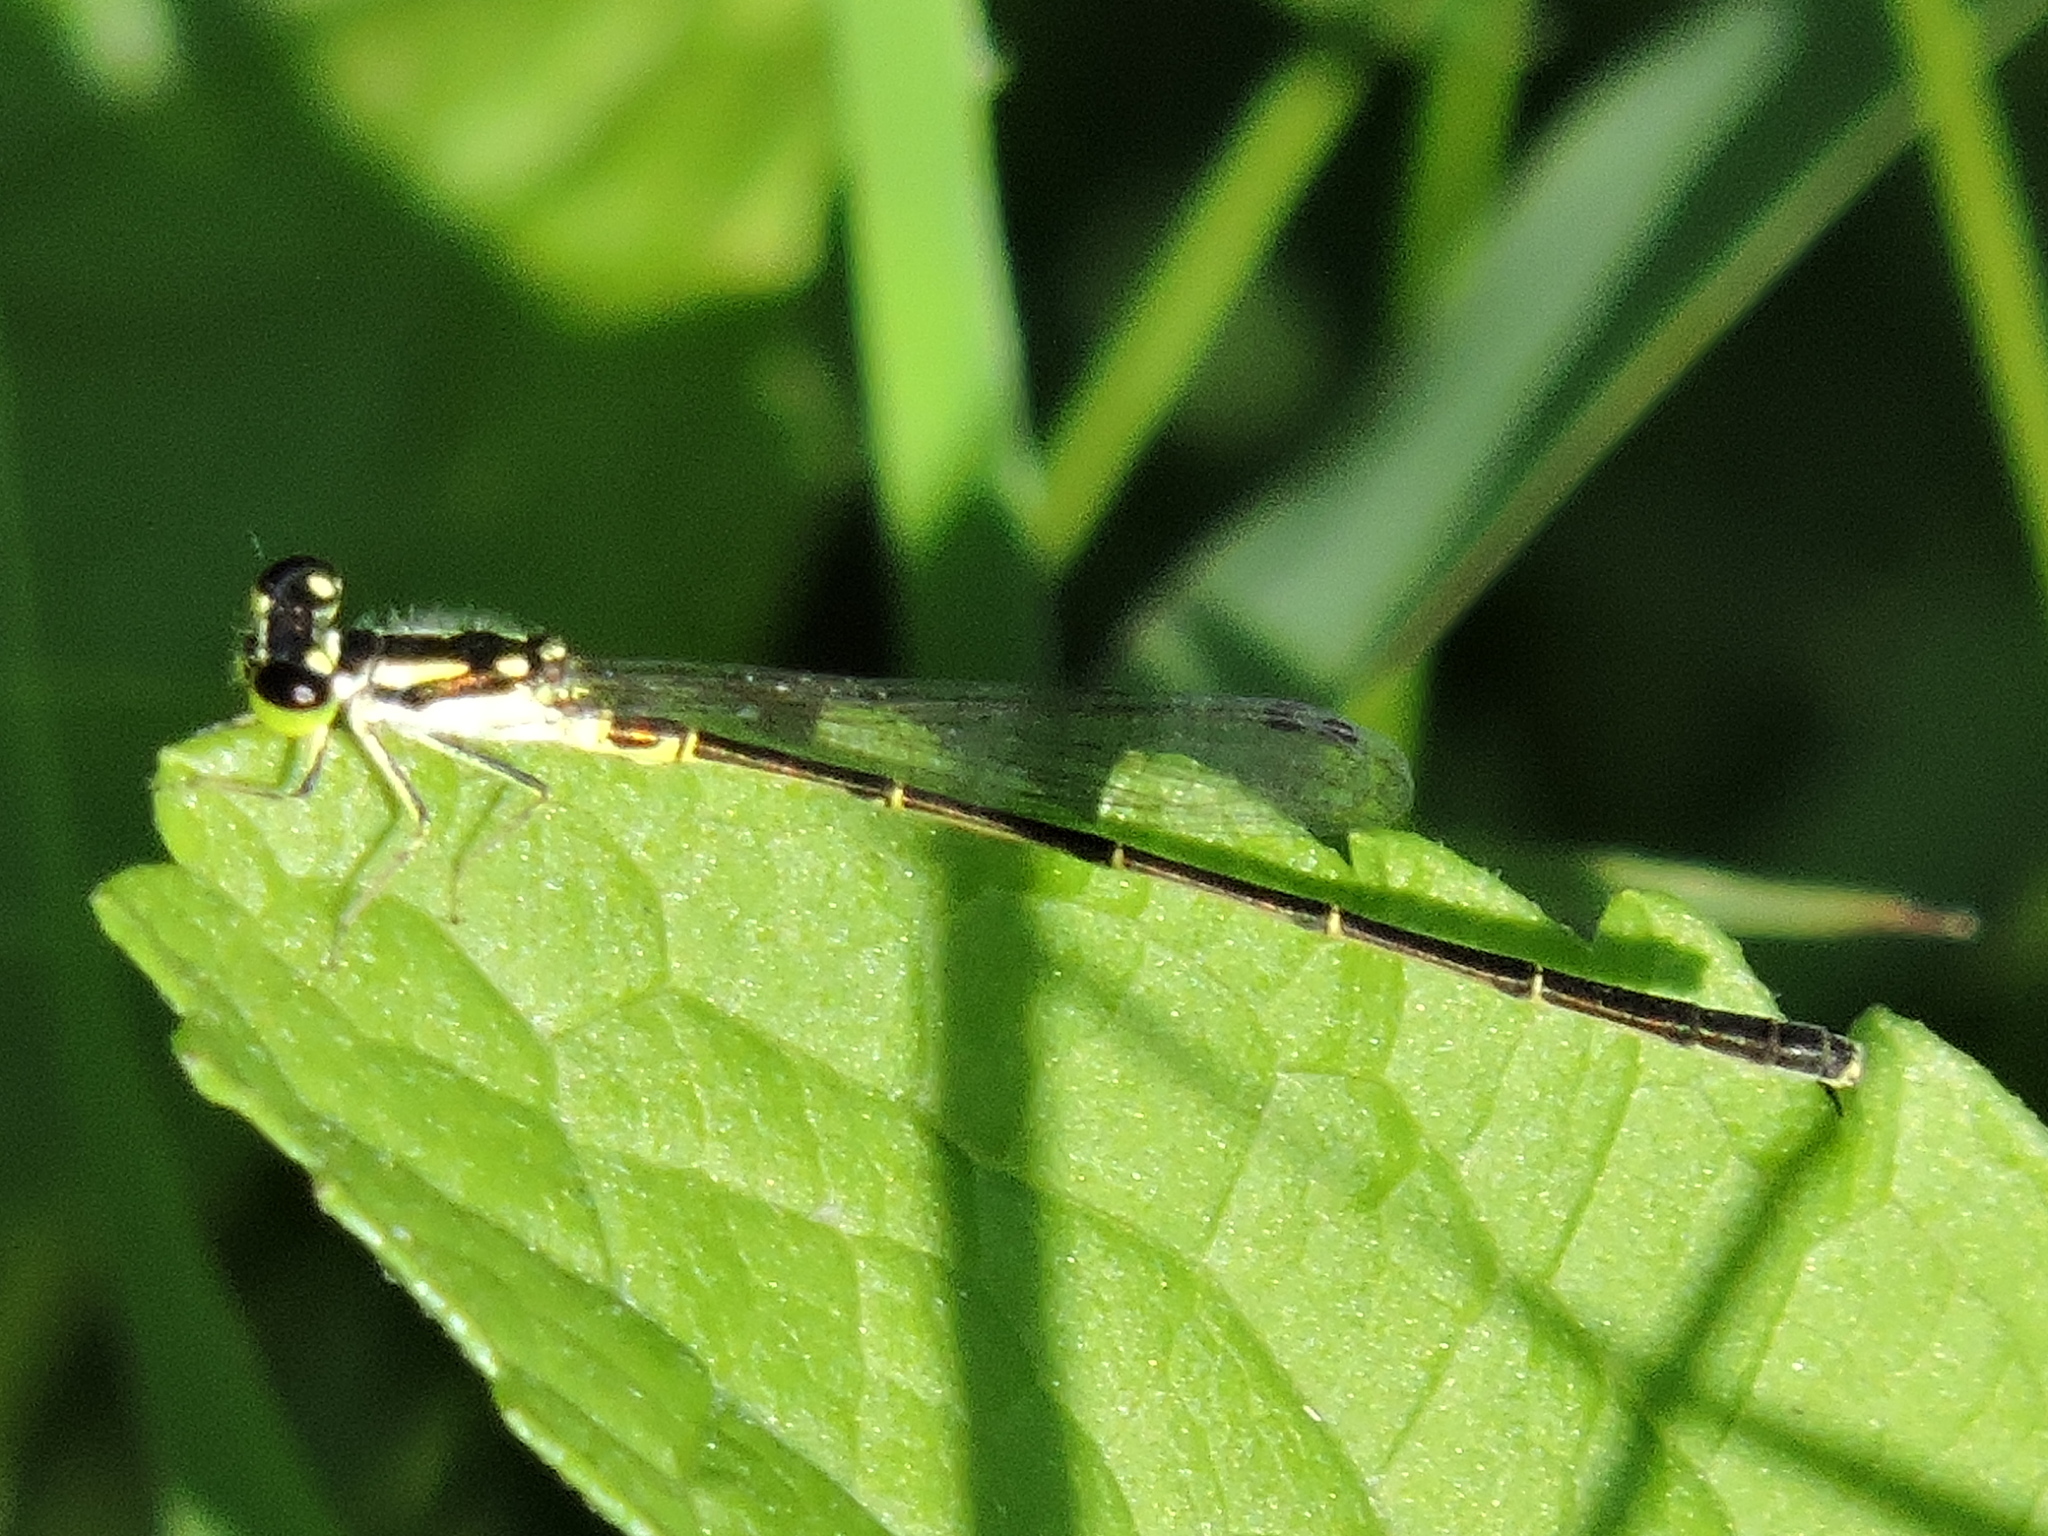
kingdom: Animalia
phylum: Arthropoda
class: Insecta
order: Odonata
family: Coenagrionidae
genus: Ischnura
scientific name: Ischnura posita
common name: Fragile forktail
